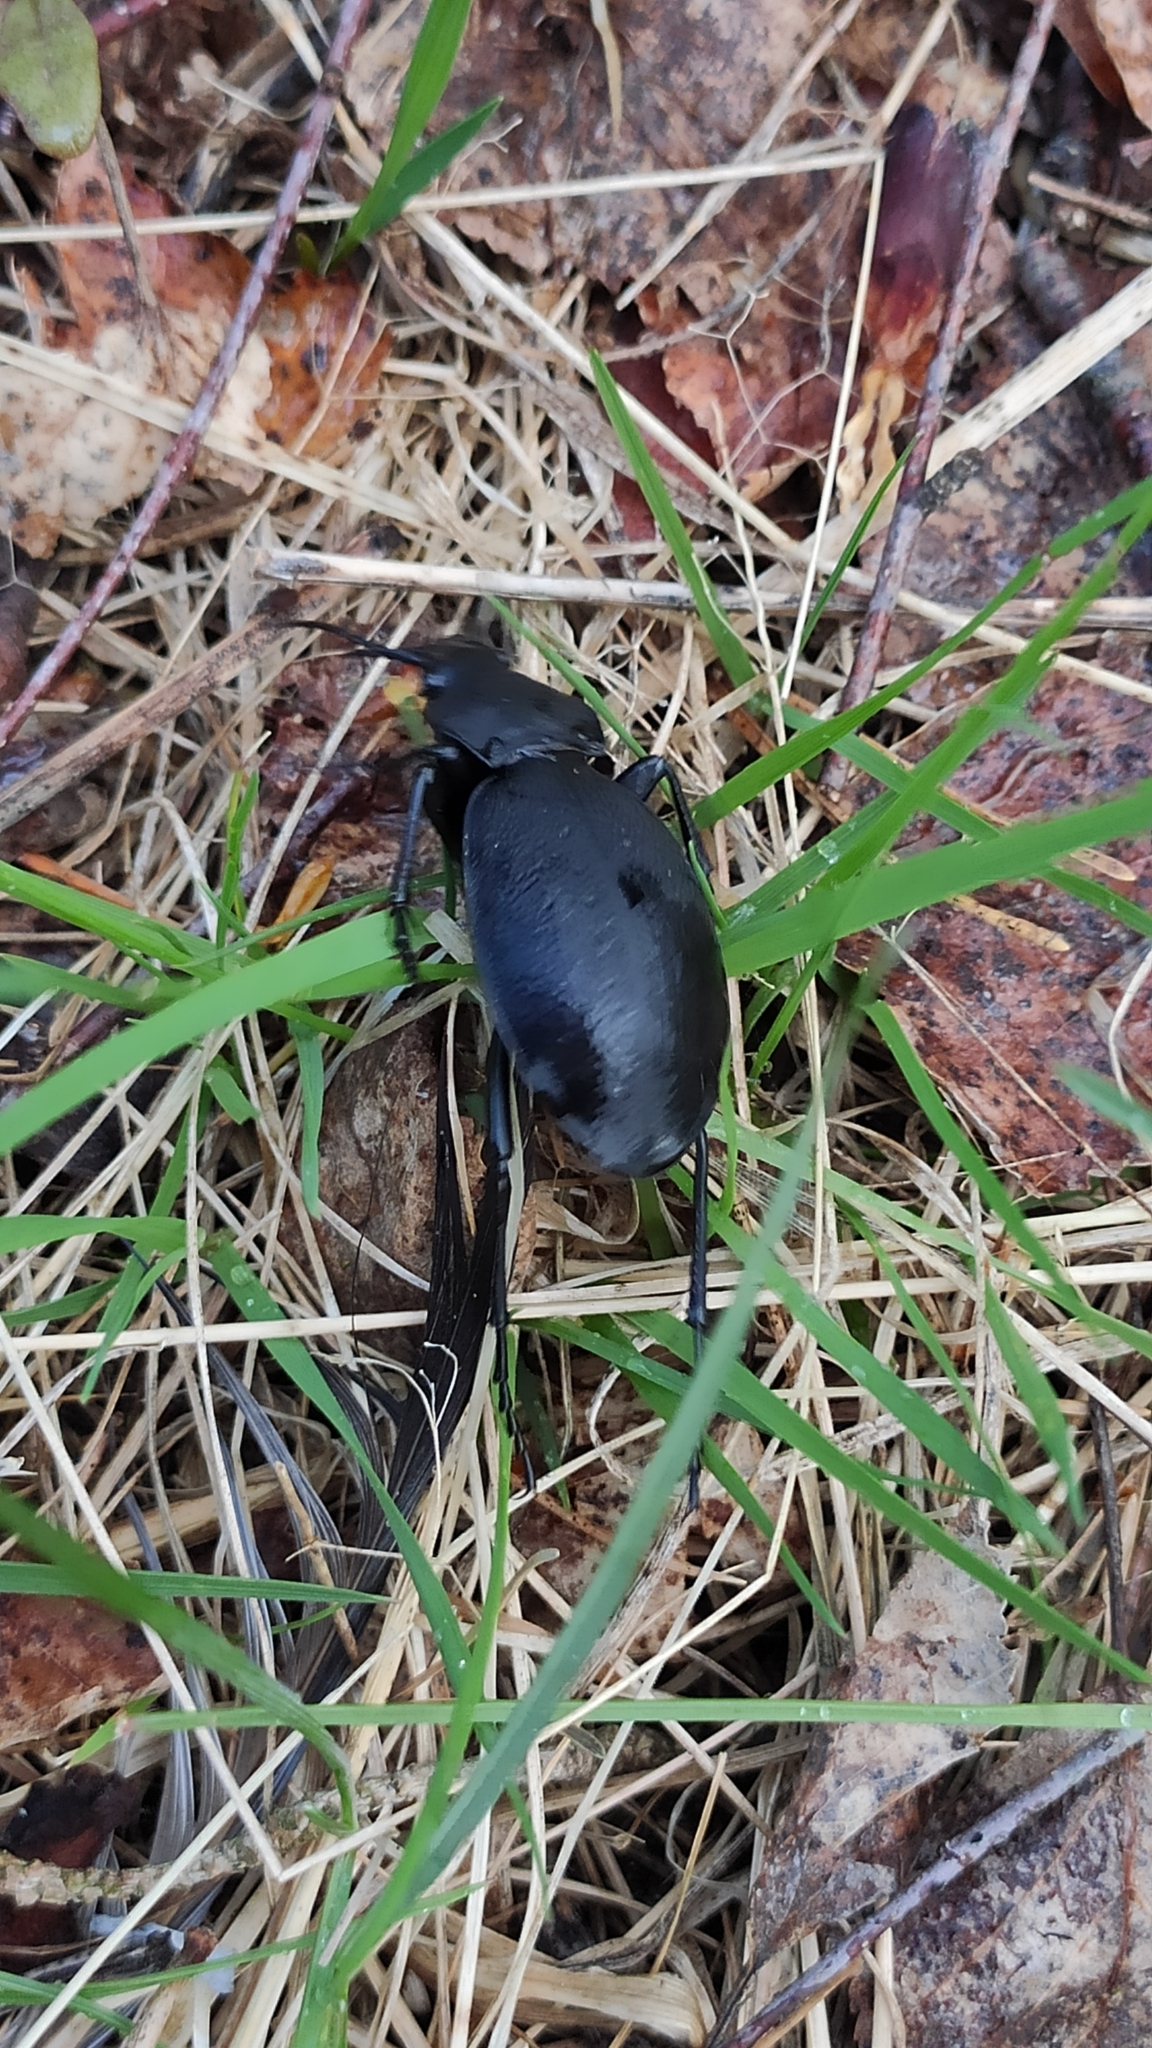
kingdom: Animalia
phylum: Arthropoda
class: Insecta
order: Coleoptera
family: Carabidae
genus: Carabus
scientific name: Carabus coriaceus
